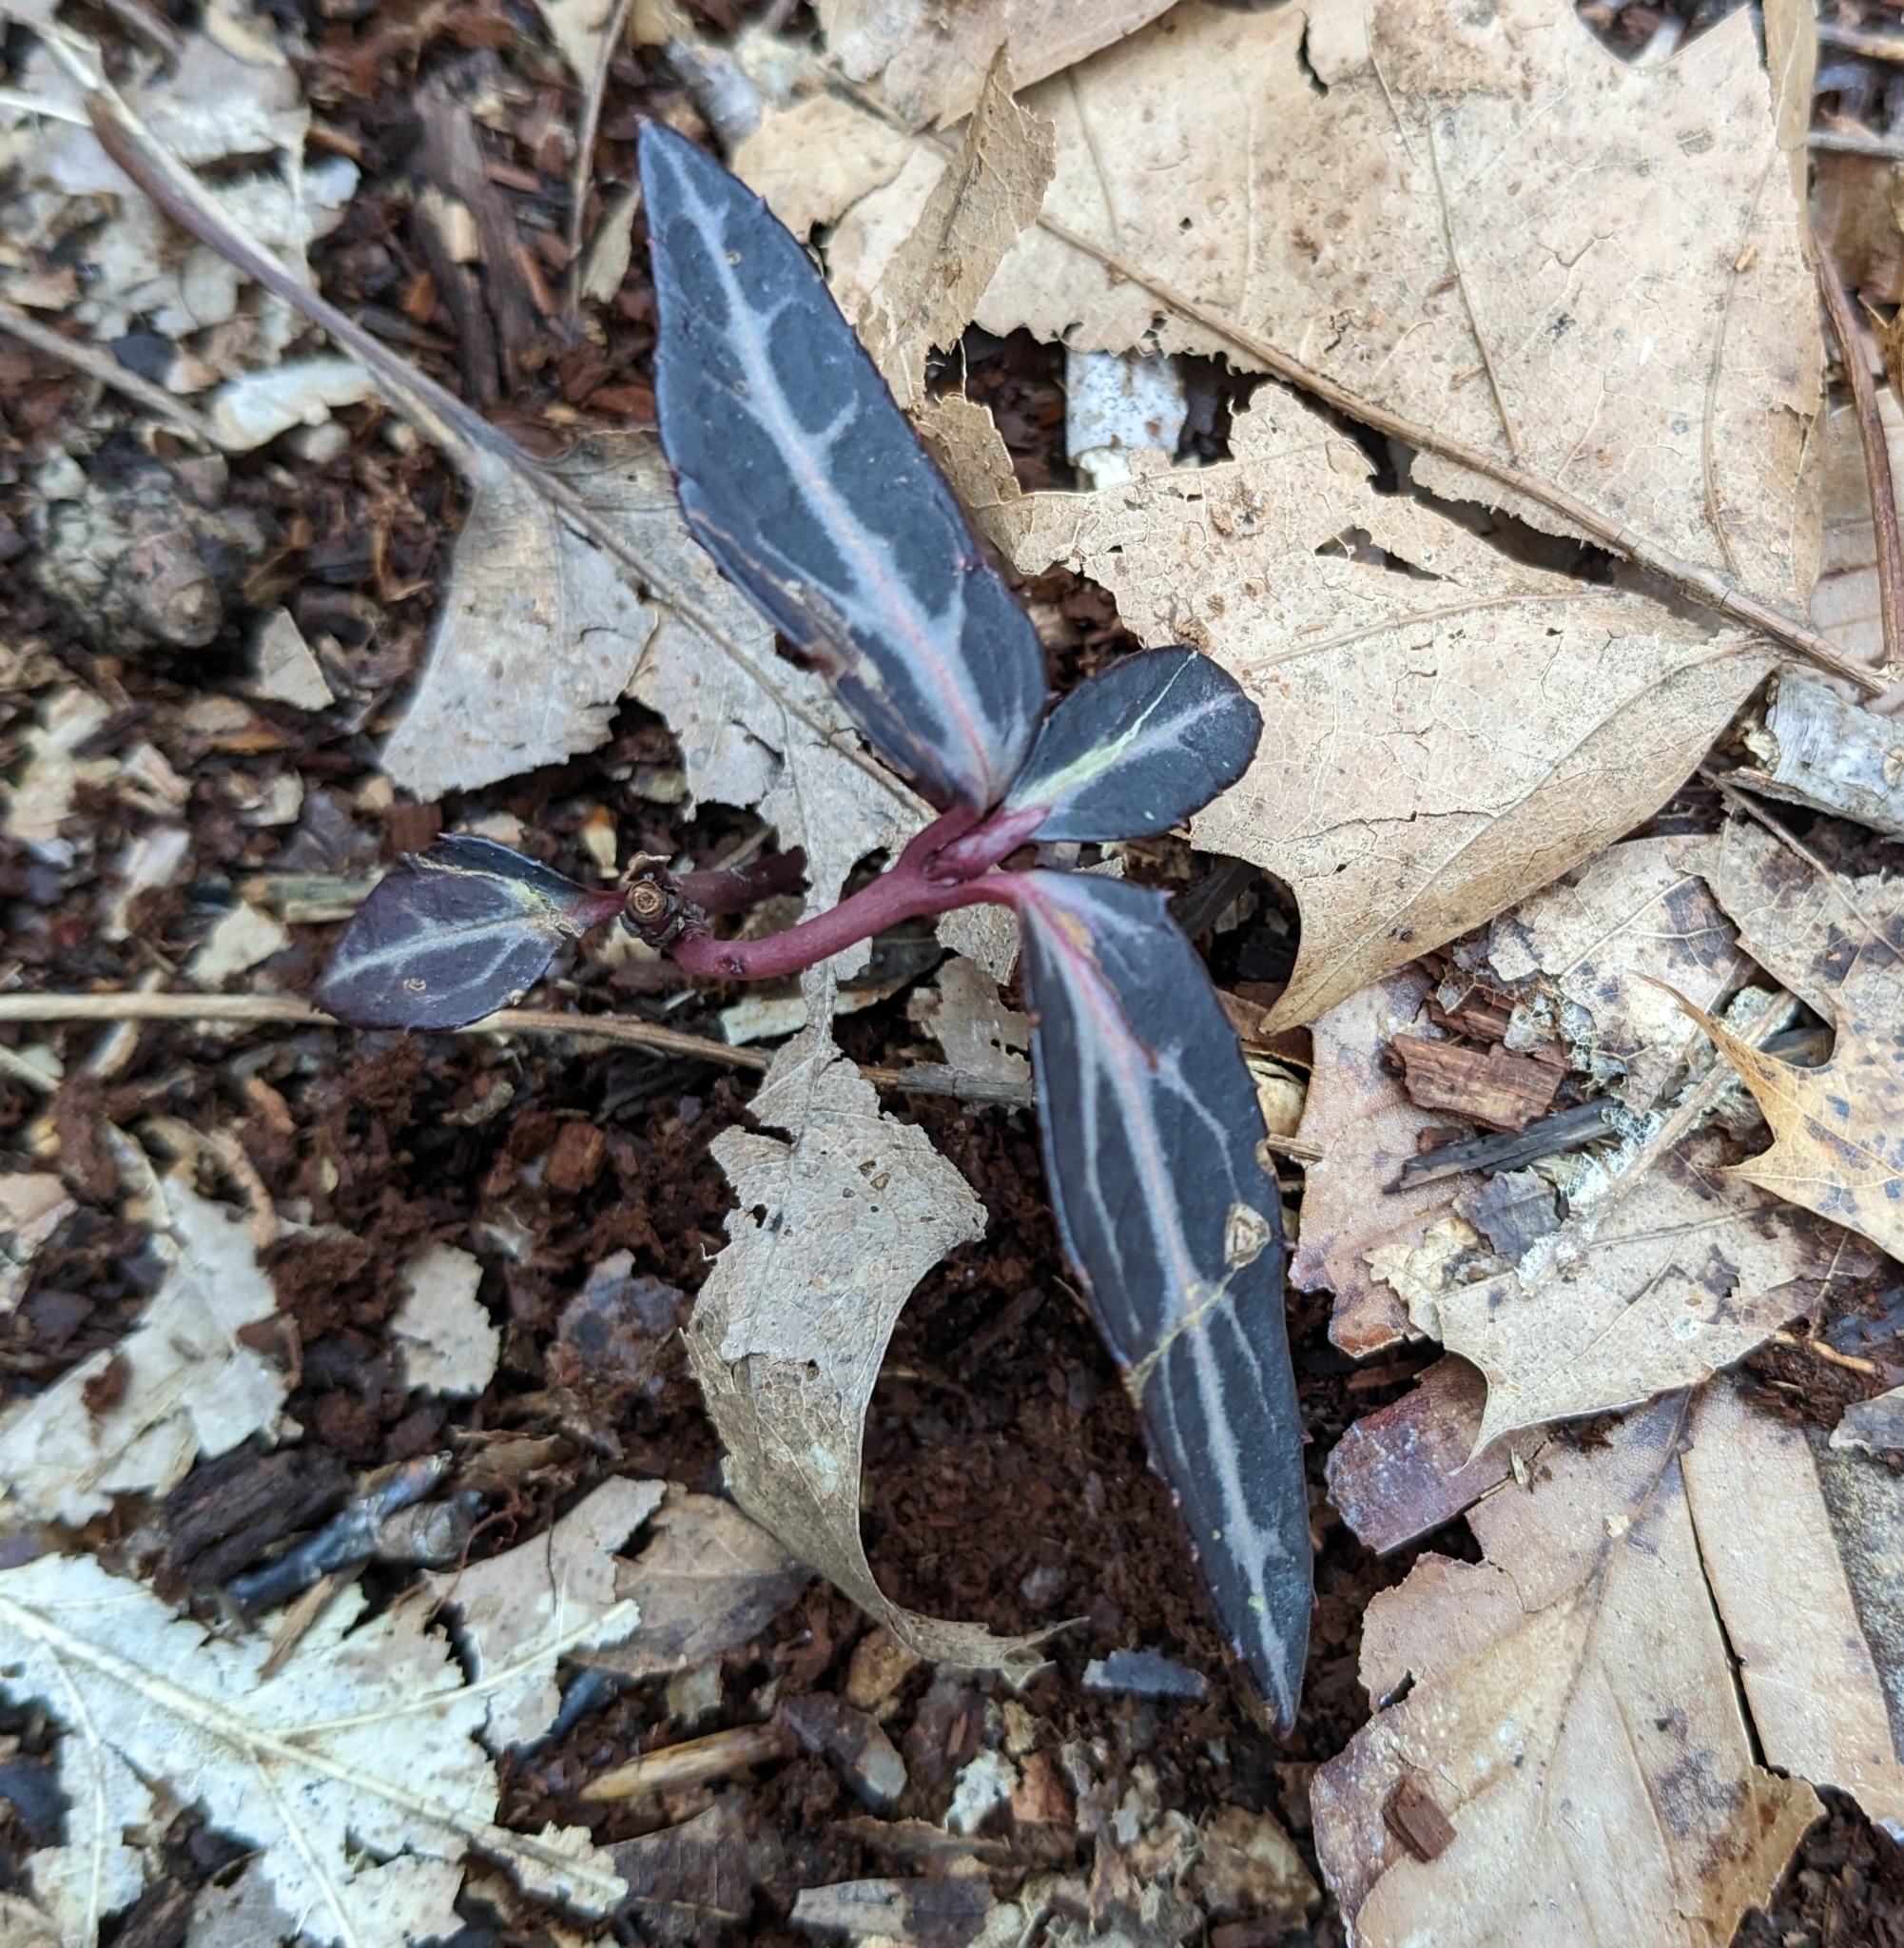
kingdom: Plantae
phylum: Tracheophyta
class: Magnoliopsida
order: Ericales
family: Ericaceae
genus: Chimaphila
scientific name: Chimaphila maculata
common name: Spotted pipsissewa
